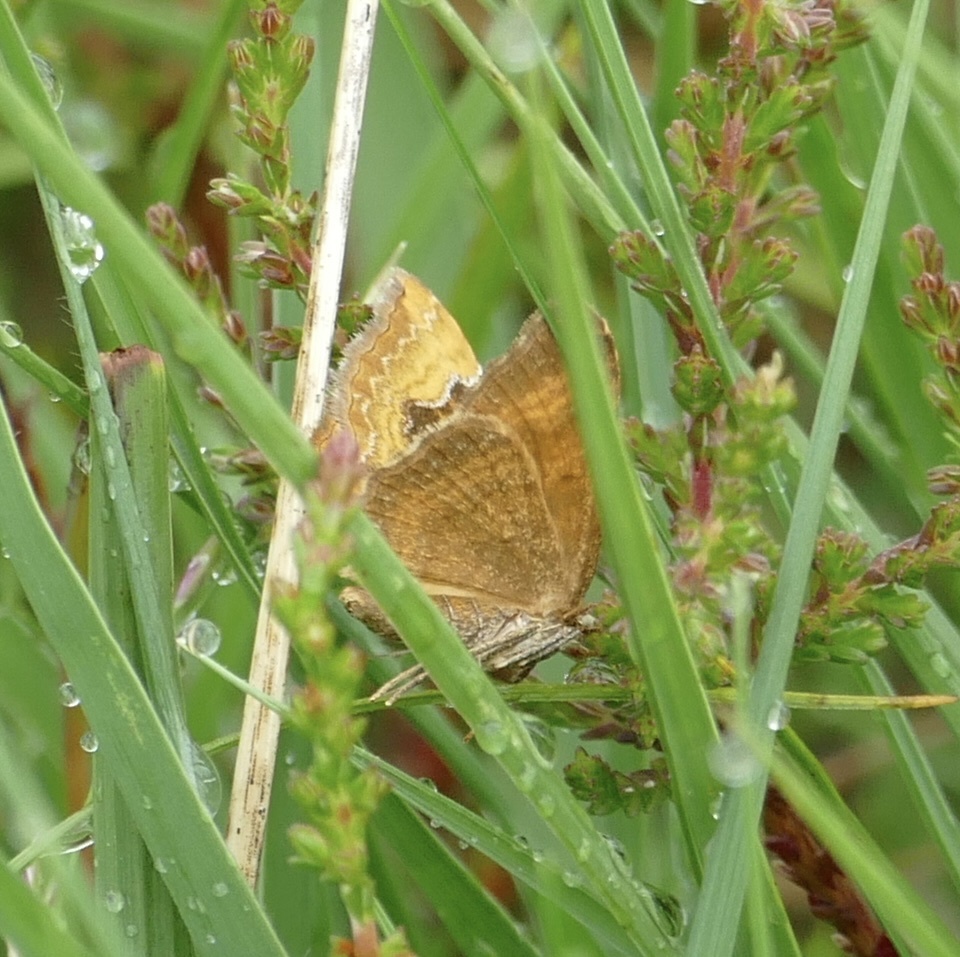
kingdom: Animalia
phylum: Arthropoda
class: Insecta
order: Lepidoptera
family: Geometridae
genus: Camptogramma
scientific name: Camptogramma bilineata
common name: Yellow shell
